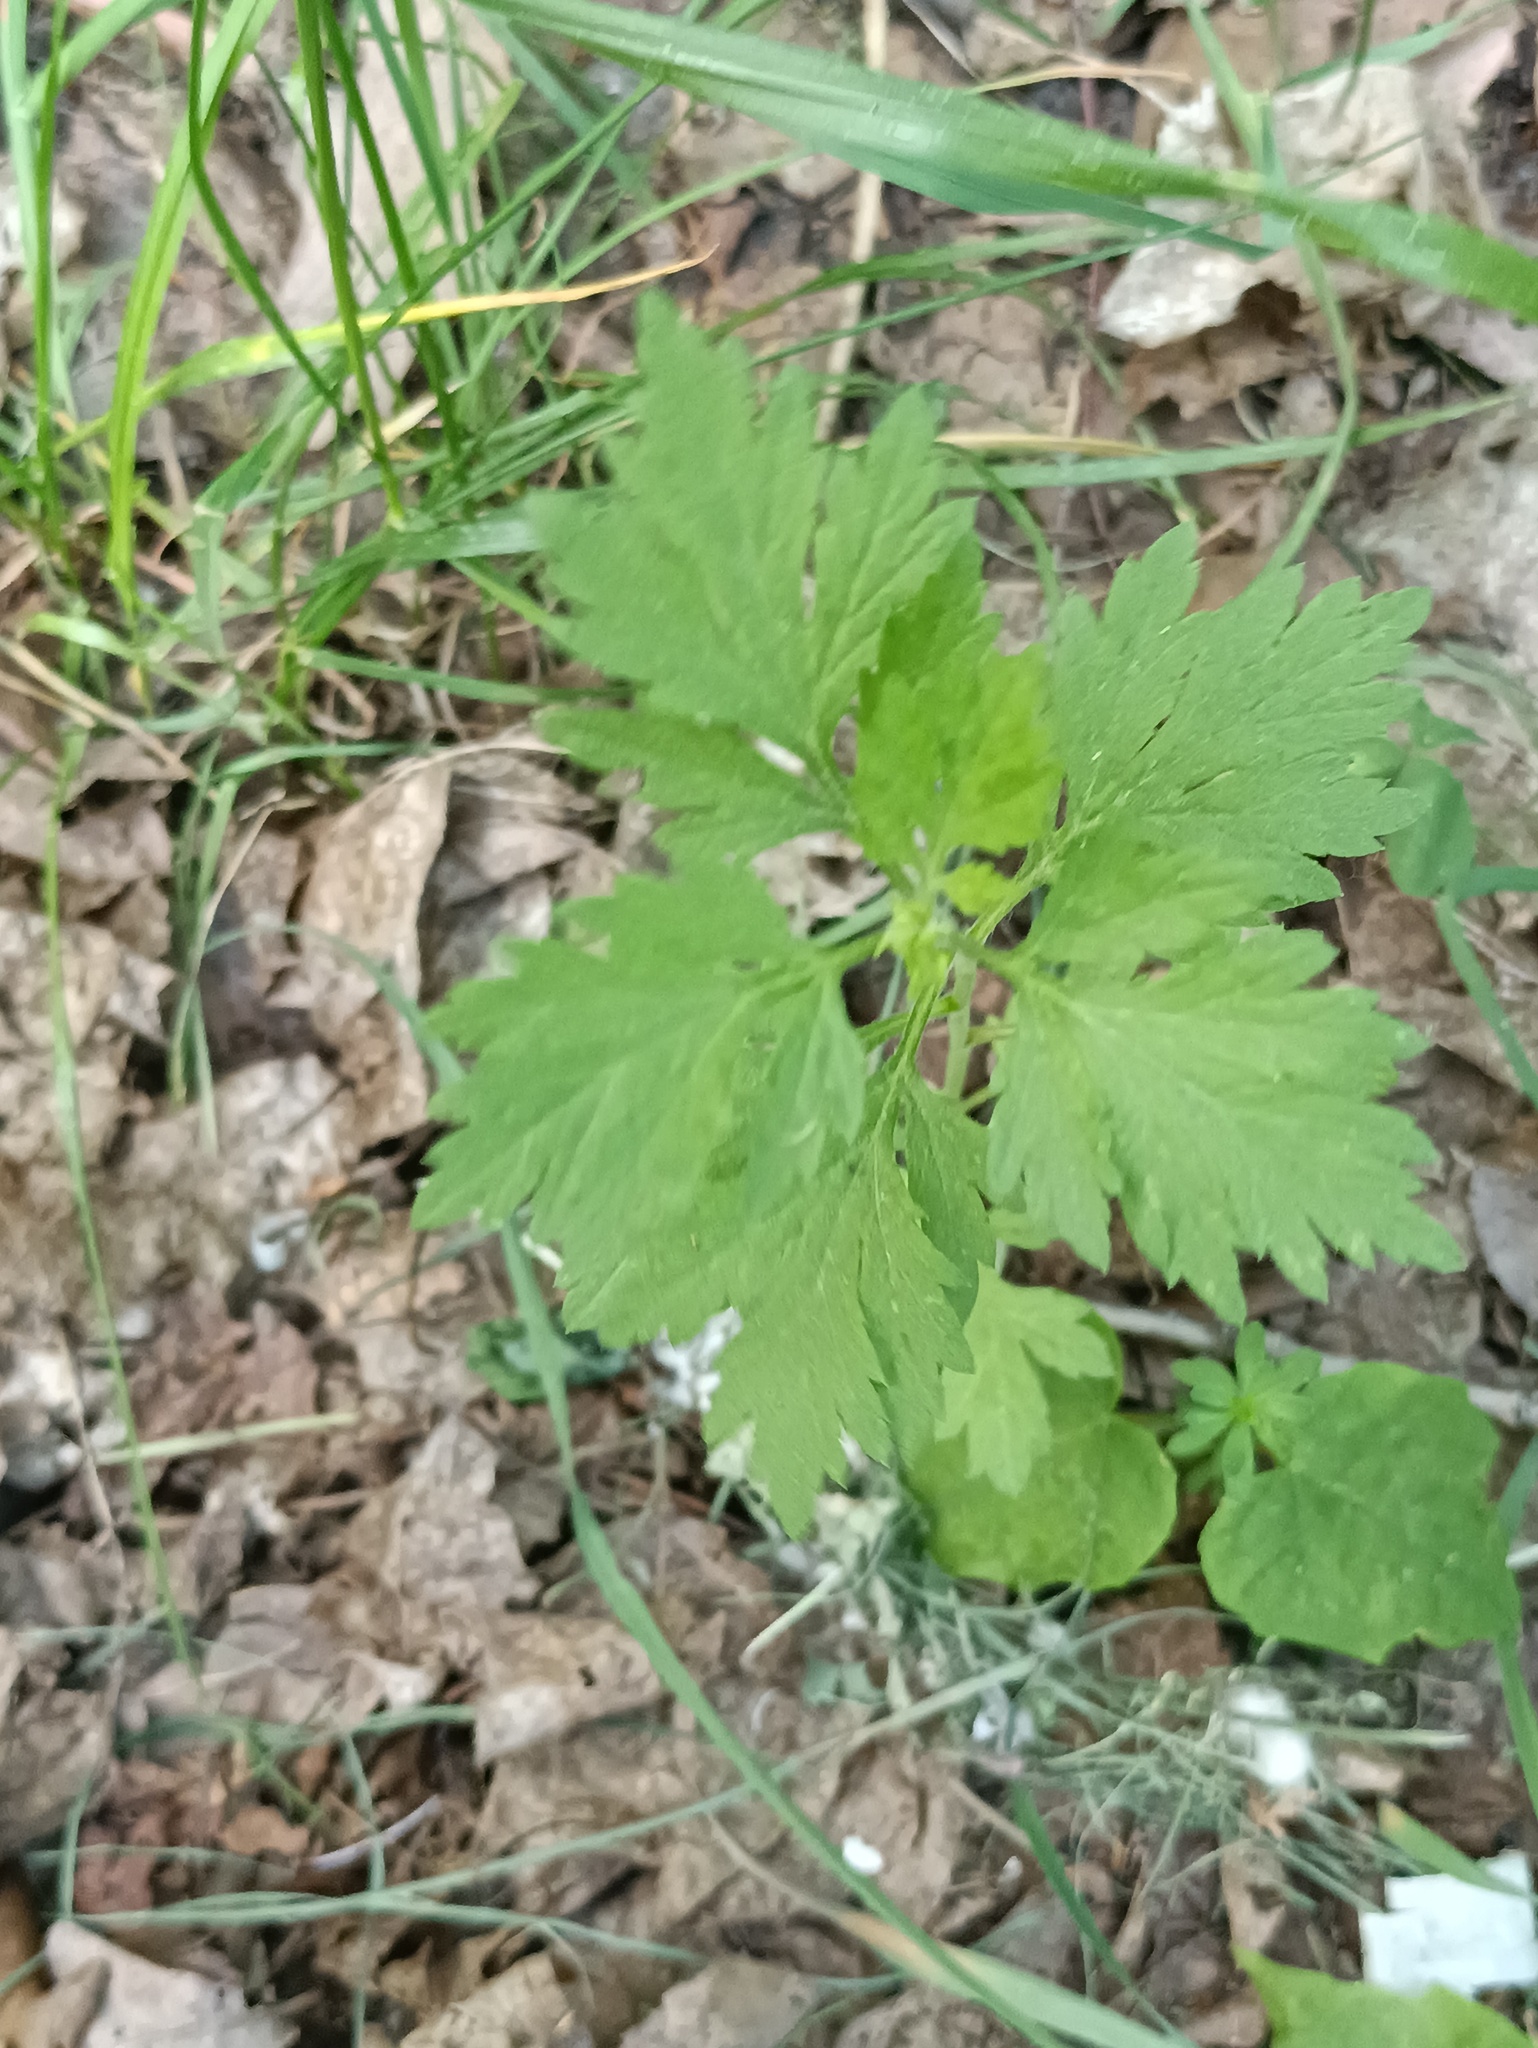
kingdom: Plantae
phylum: Tracheophyta
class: Magnoliopsida
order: Asterales
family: Asteraceae
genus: Artemisia
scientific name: Artemisia vulgaris
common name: Mugwort
